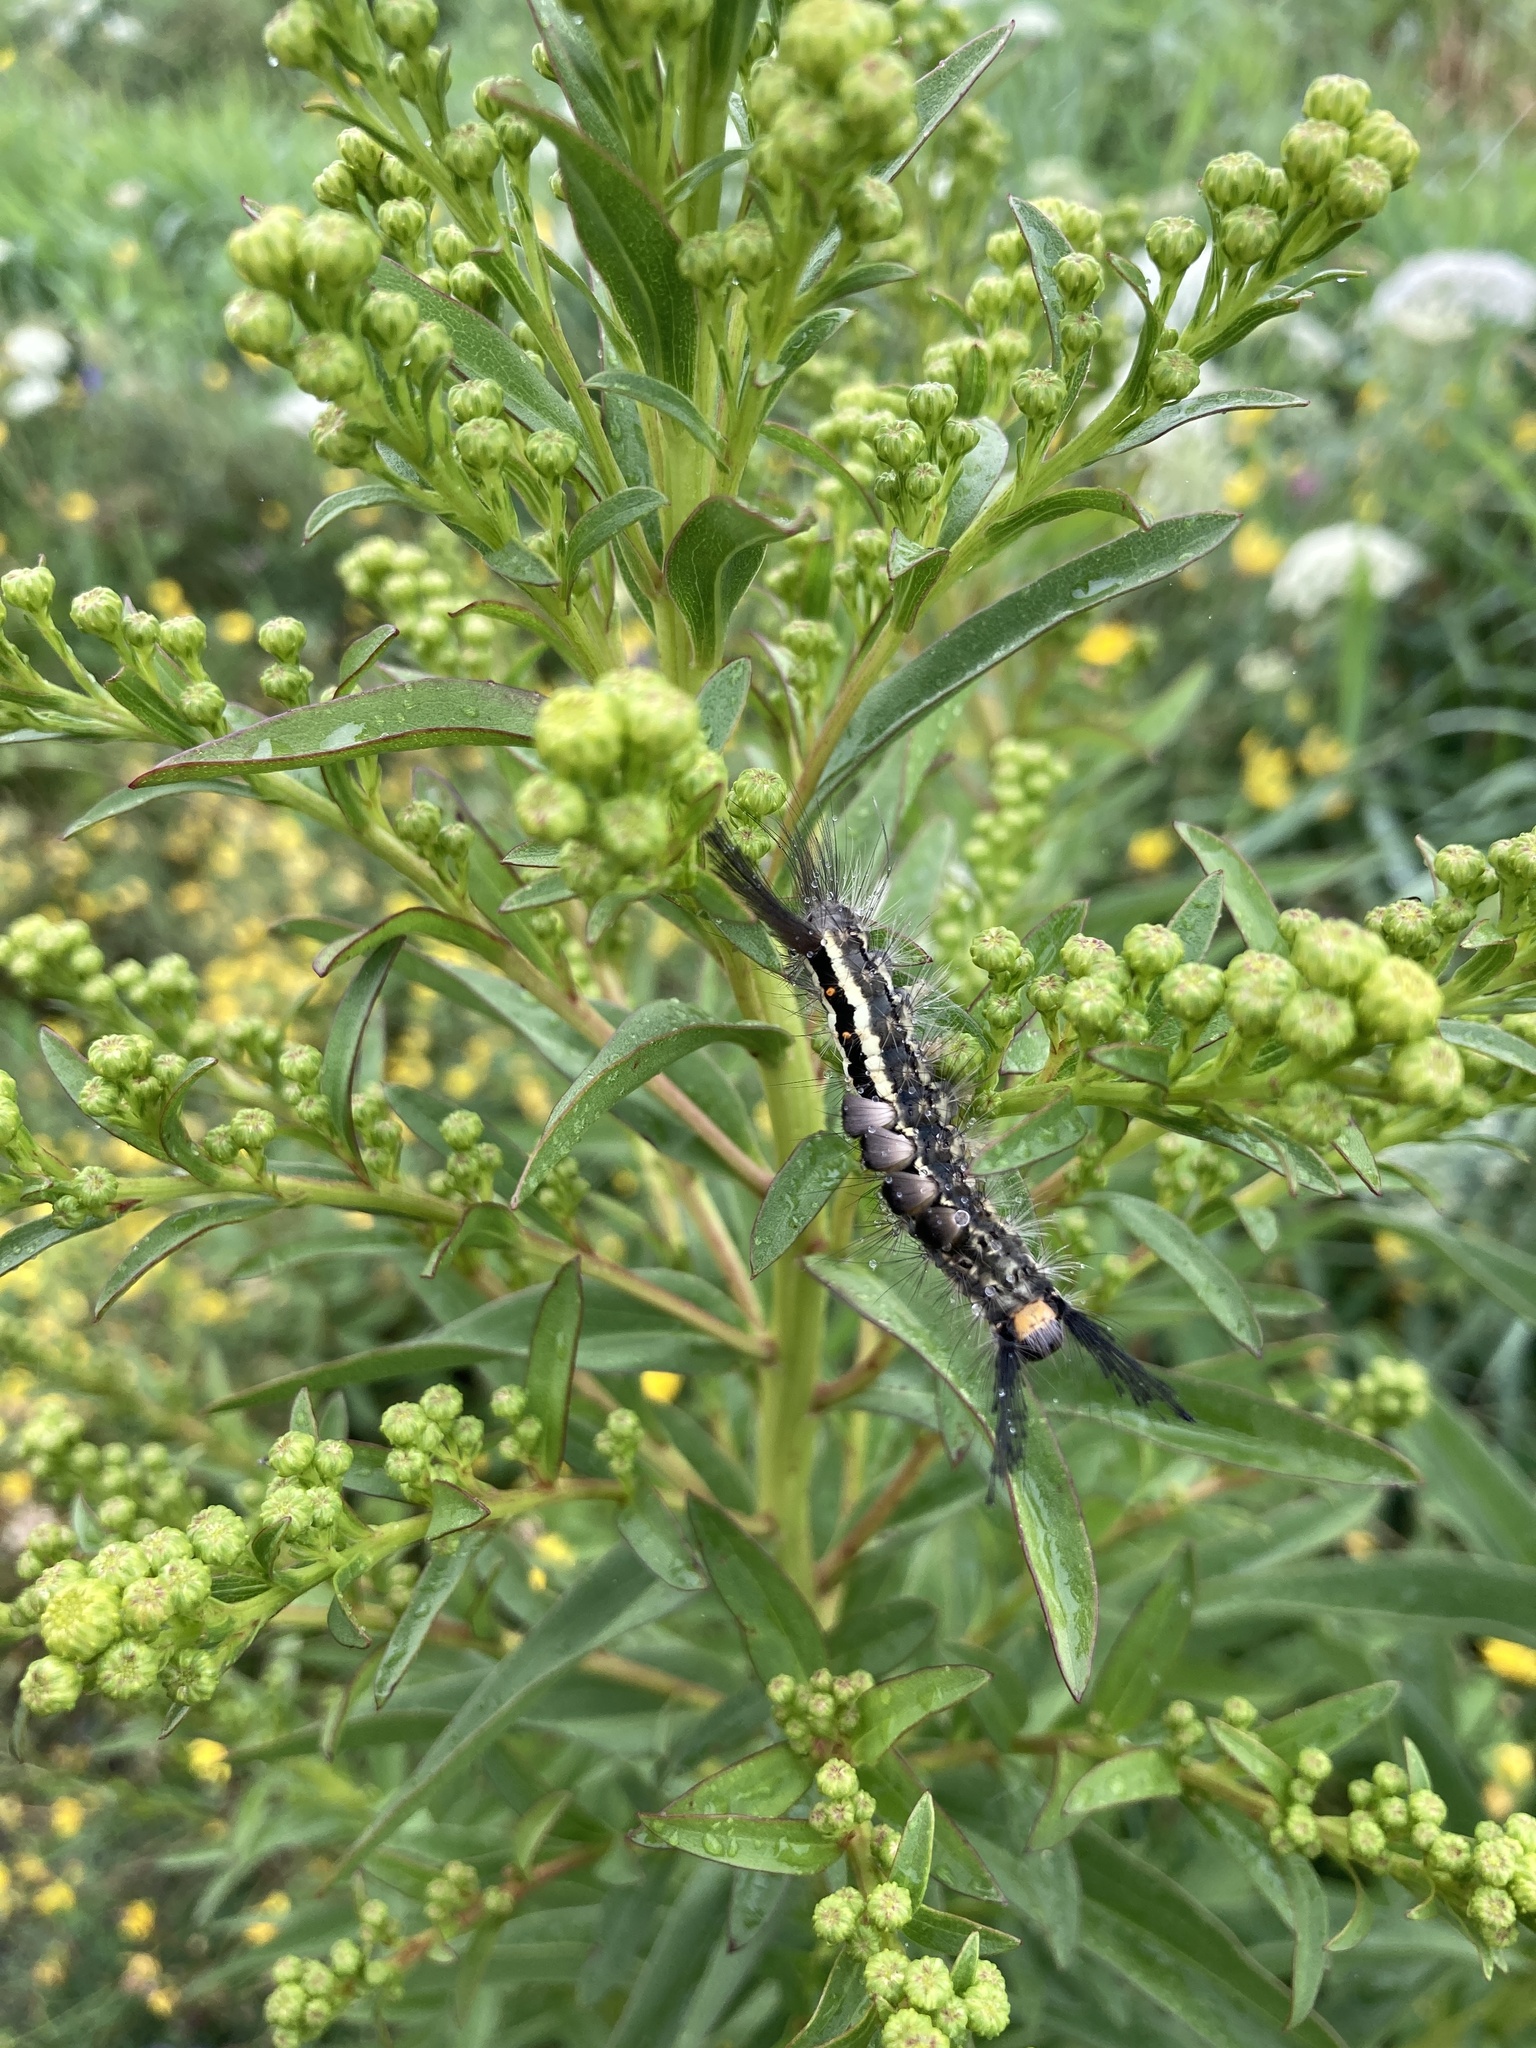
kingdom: Animalia
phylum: Arthropoda
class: Insecta
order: Lepidoptera
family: Erebidae
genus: Orgyia
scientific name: Orgyia leucostigma
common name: White-marked tussock moth
